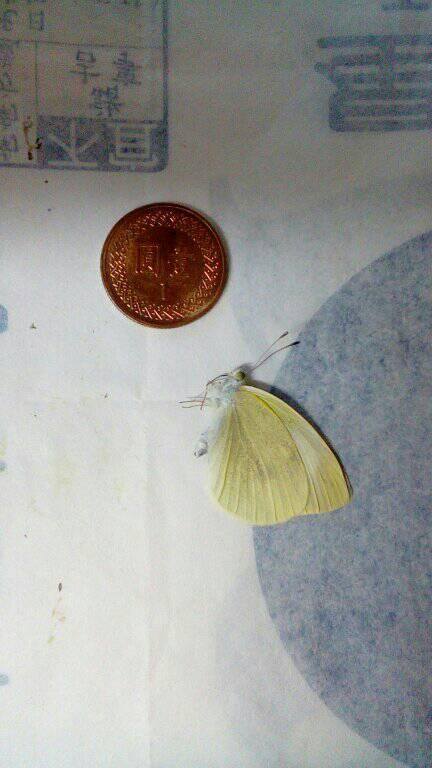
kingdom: Animalia
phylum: Arthropoda
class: Insecta
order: Lepidoptera
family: Pieridae
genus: Pieris
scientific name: Pieris rapae
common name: Small white
